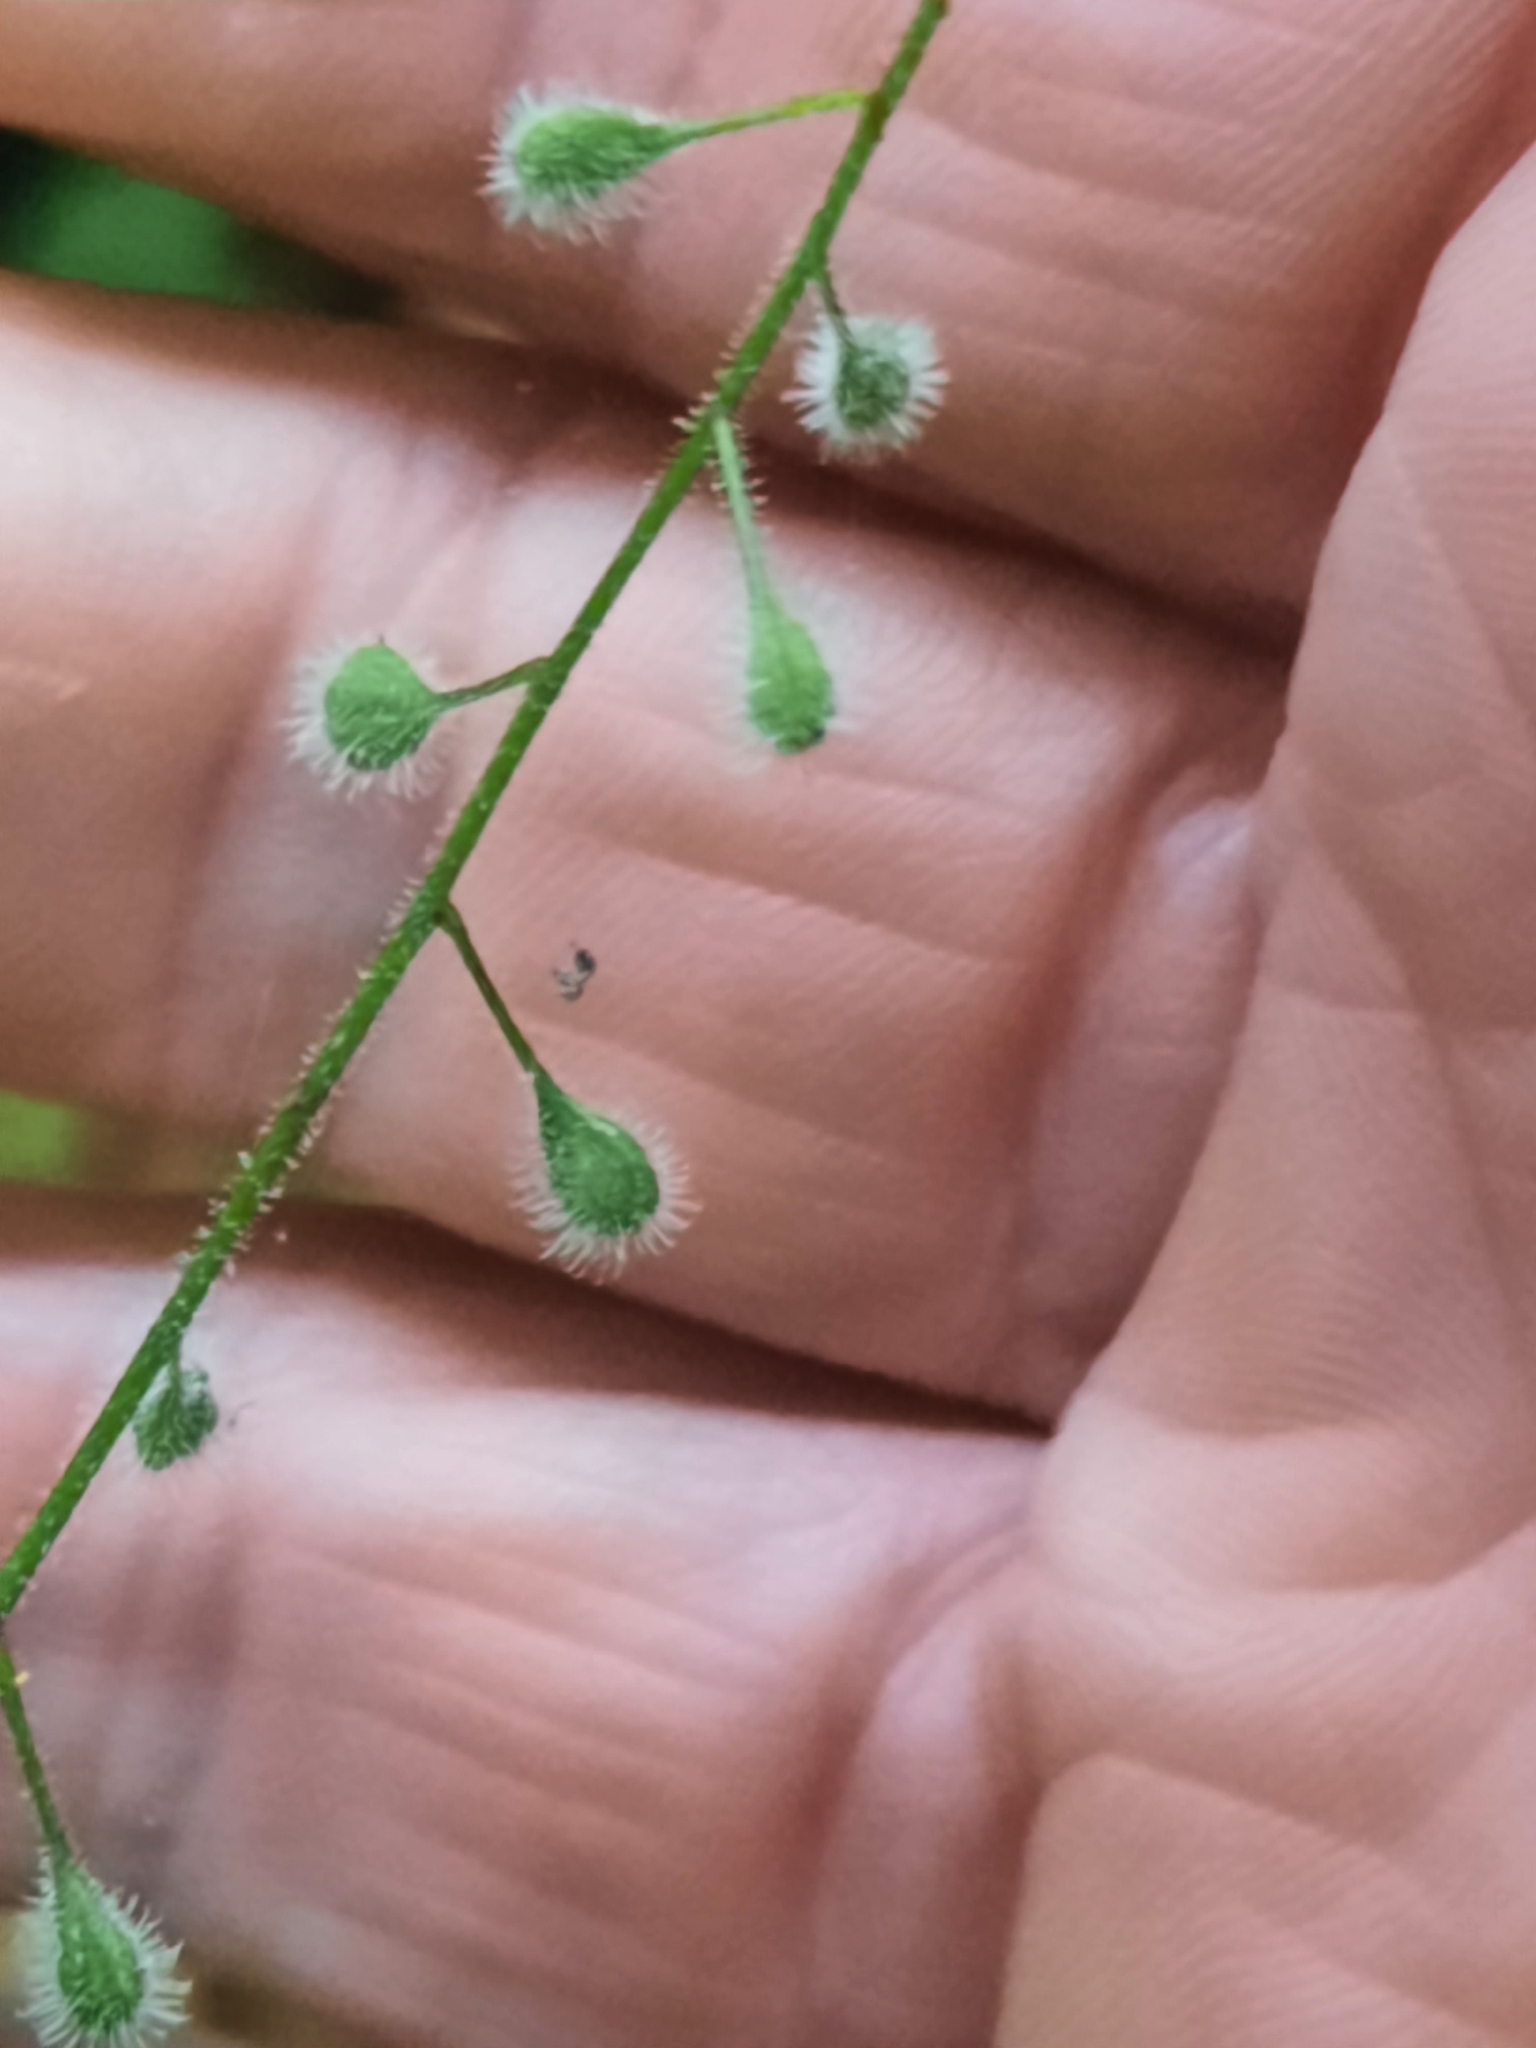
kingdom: Plantae
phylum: Tracheophyta
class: Magnoliopsida
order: Myrtales
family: Onagraceae
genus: Circaea
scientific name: Circaea canadensis
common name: Broad-leaved enchanter's nightshade
